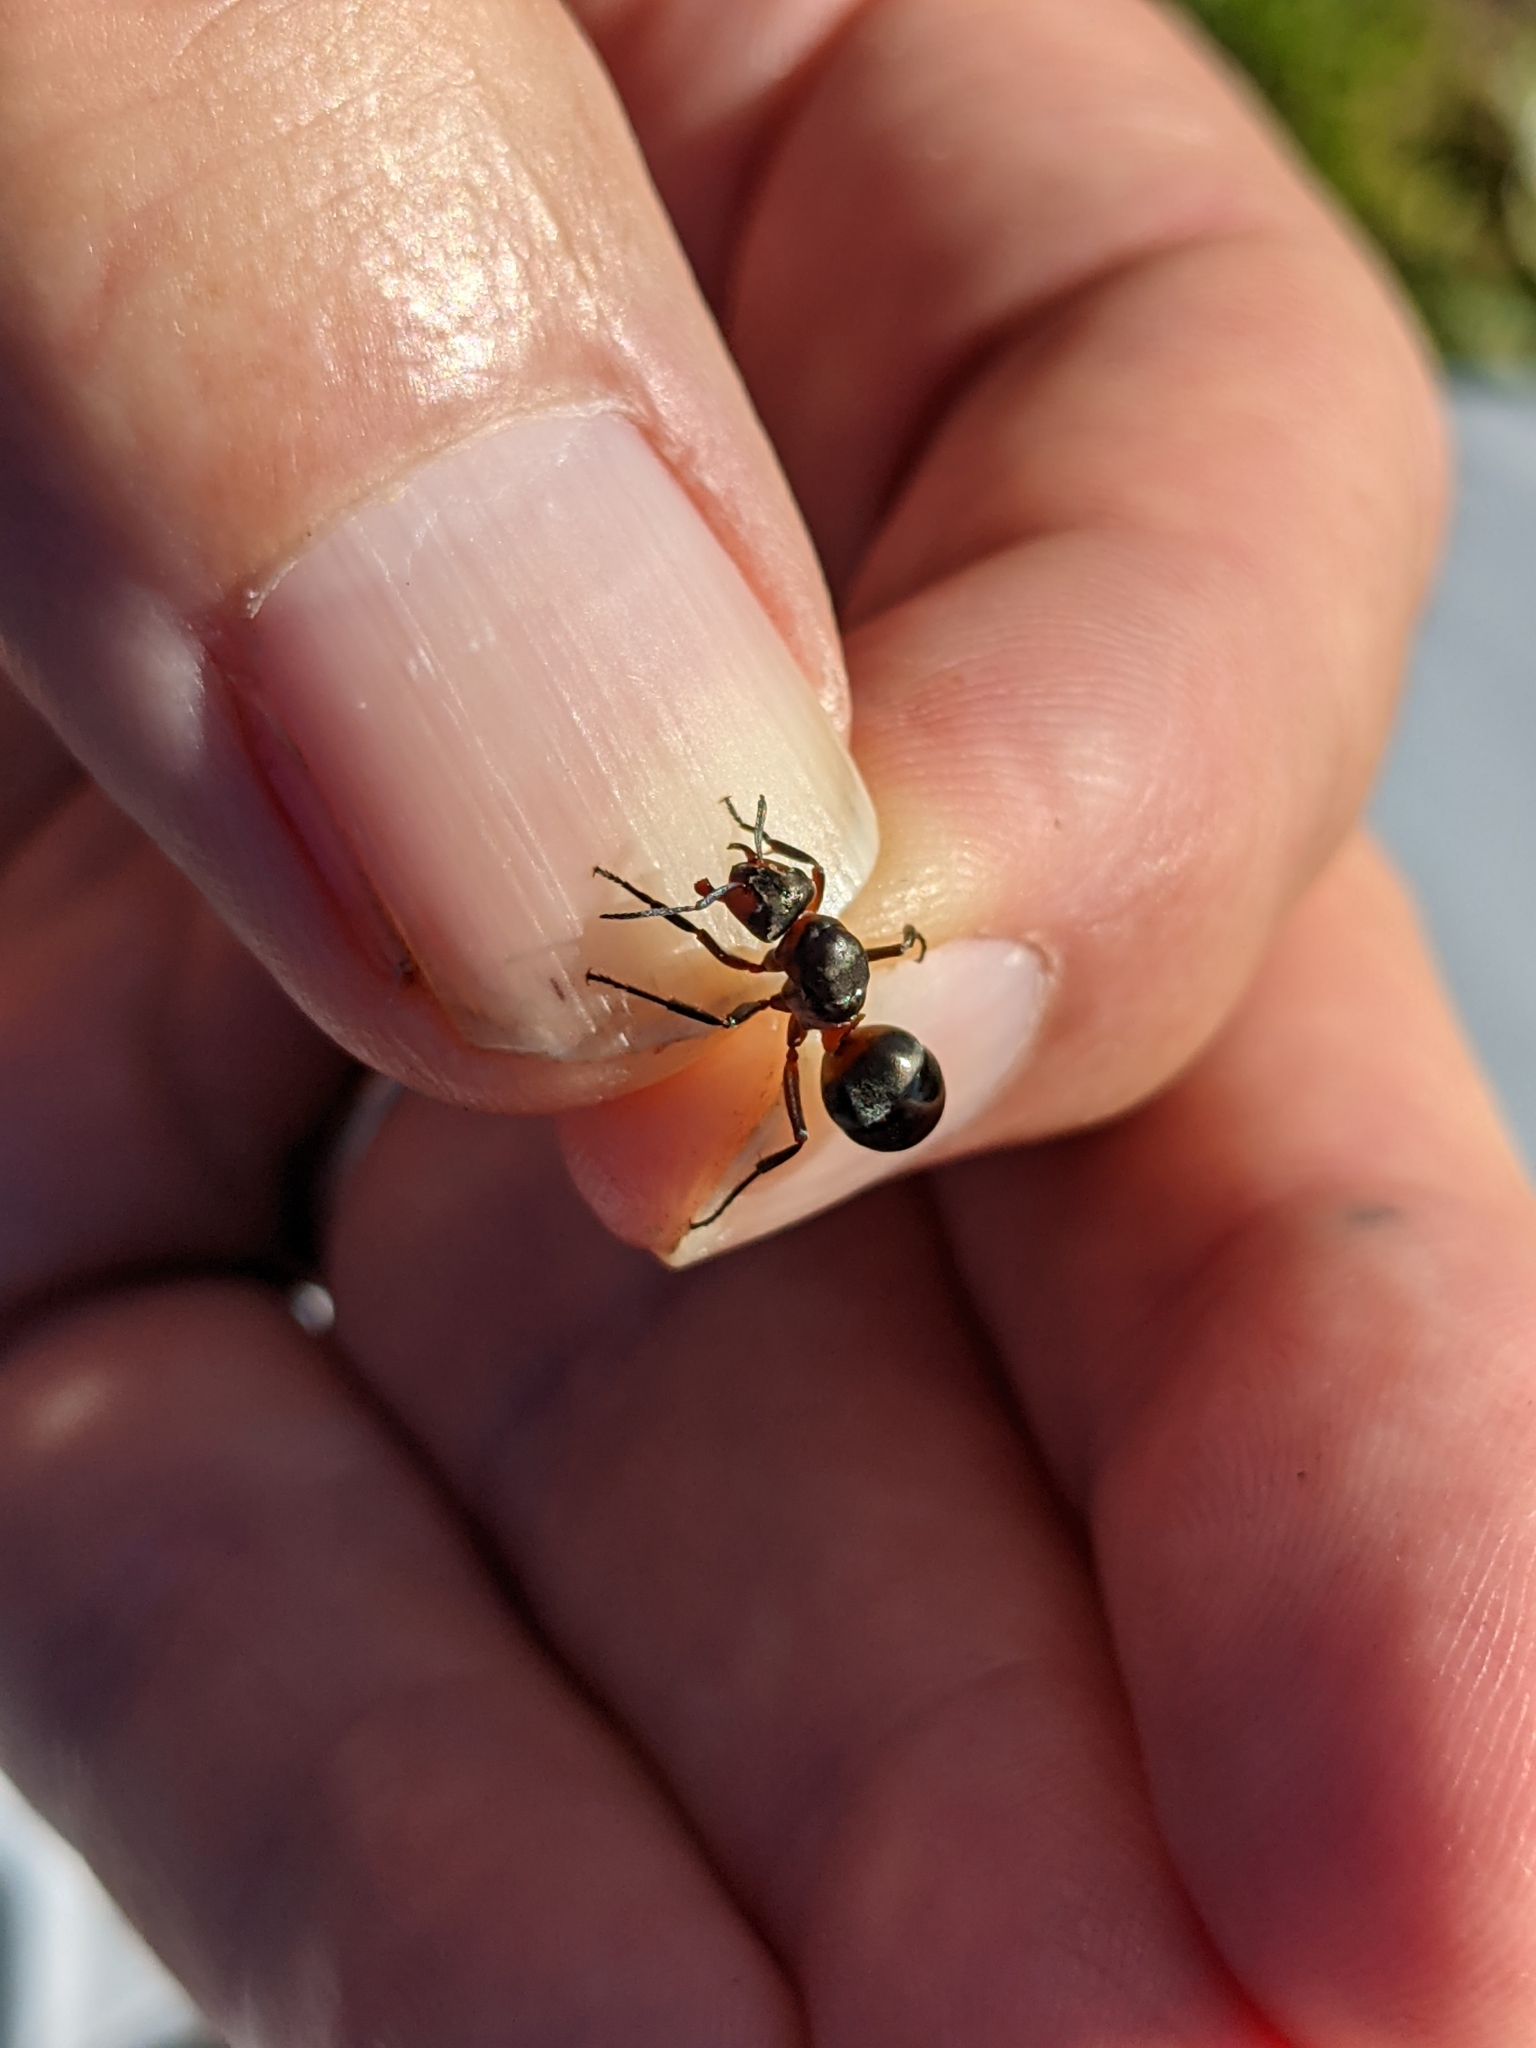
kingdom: Animalia
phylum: Arthropoda
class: Insecta
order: Hymenoptera
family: Formicidae
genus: Formica
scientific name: Formica lugubris
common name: Sinister mound ant
